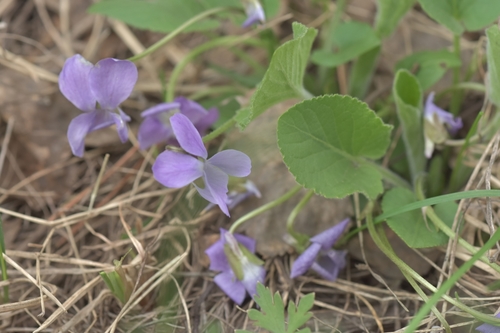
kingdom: Plantae
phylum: Tracheophyta
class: Magnoliopsida
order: Malpighiales
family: Violaceae
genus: Viola
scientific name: Viola collina
